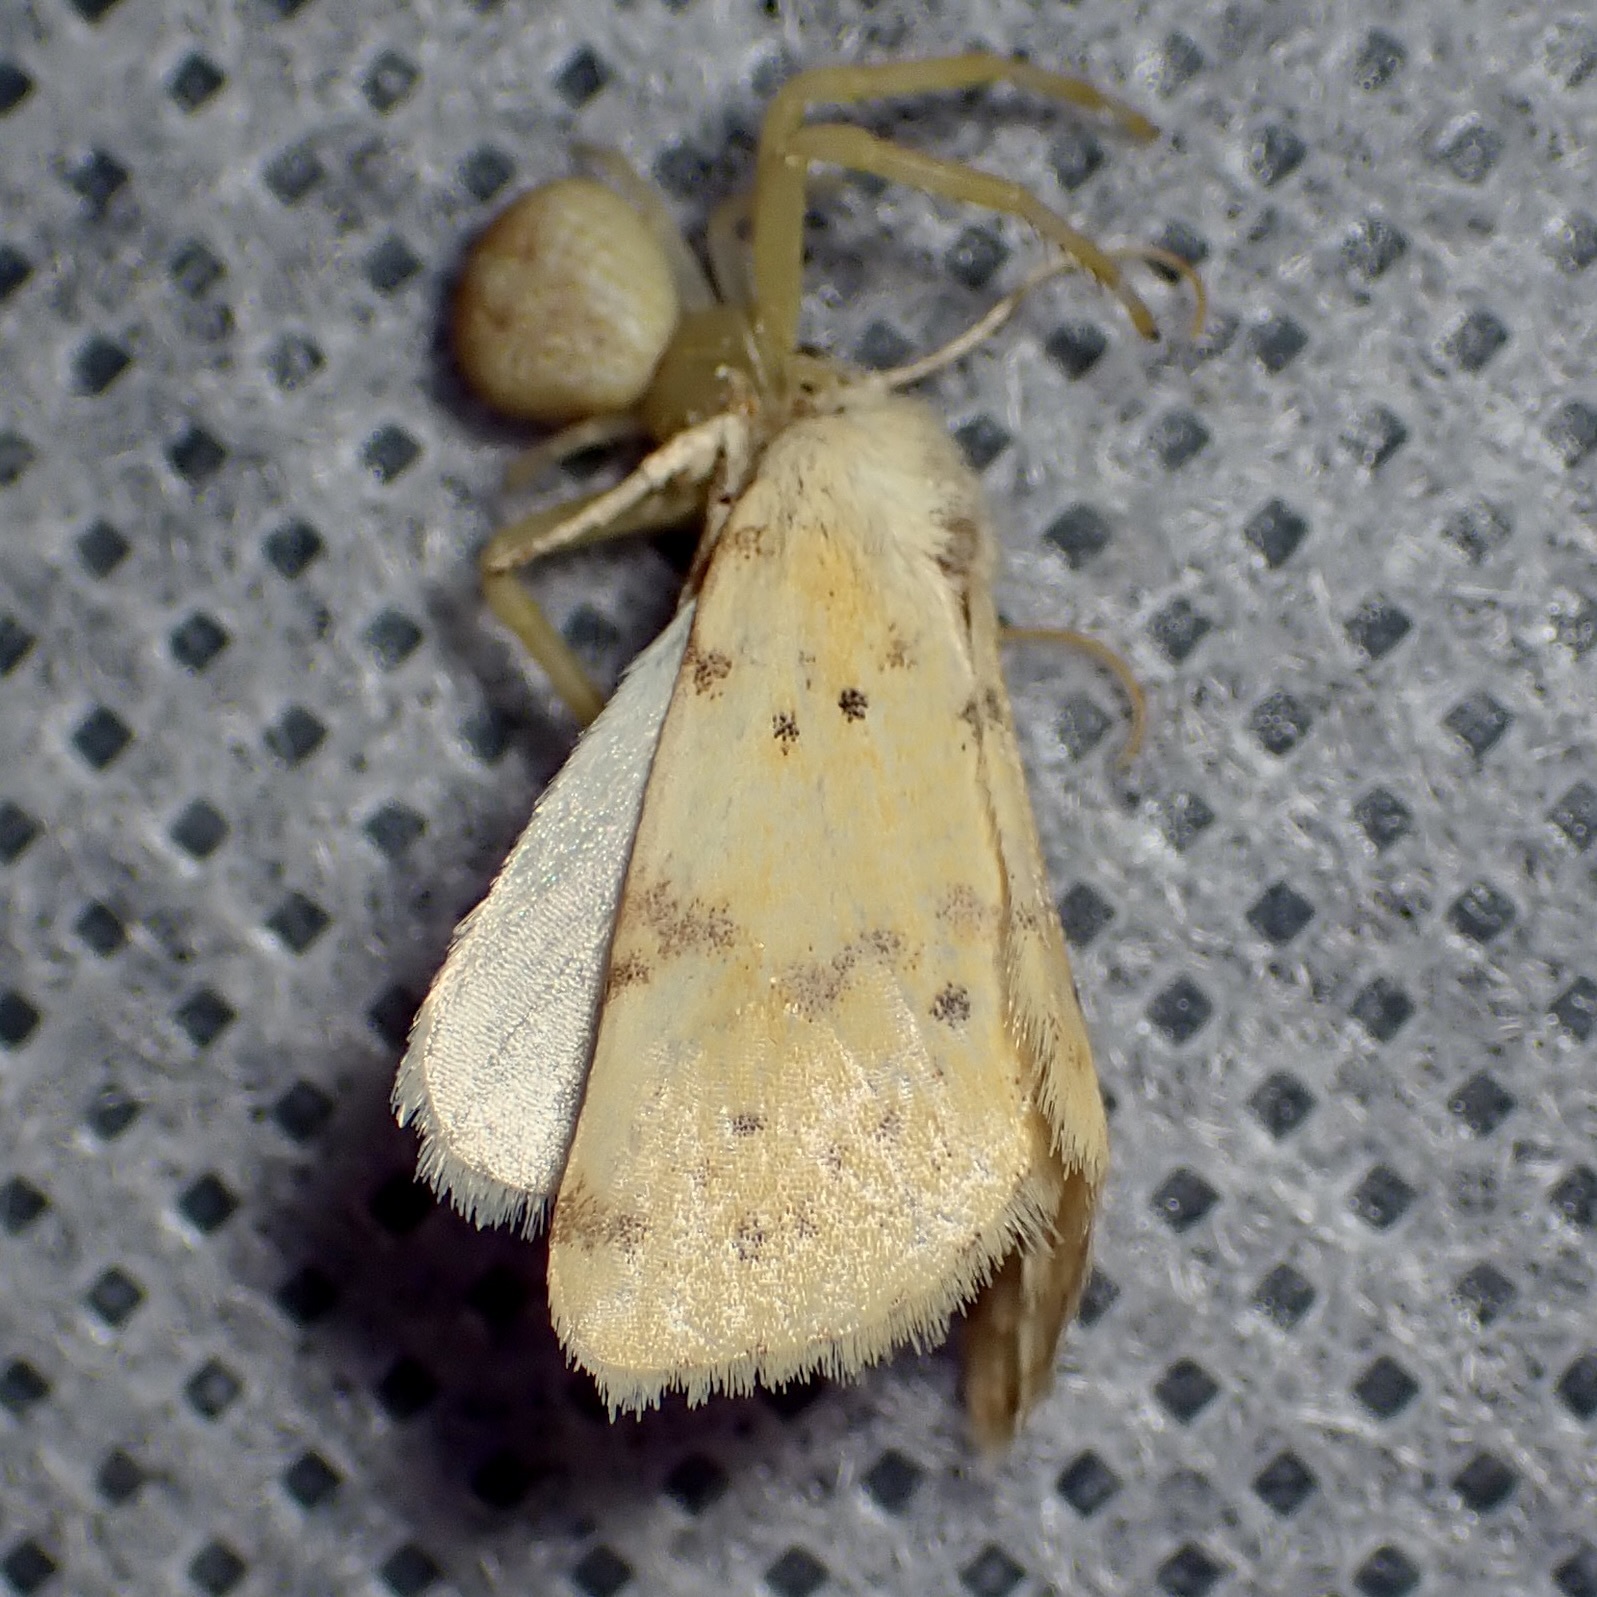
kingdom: Animalia
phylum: Arthropoda
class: Insecta
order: Lepidoptera
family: Noctuidae
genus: Azenia
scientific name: Azenia implora
